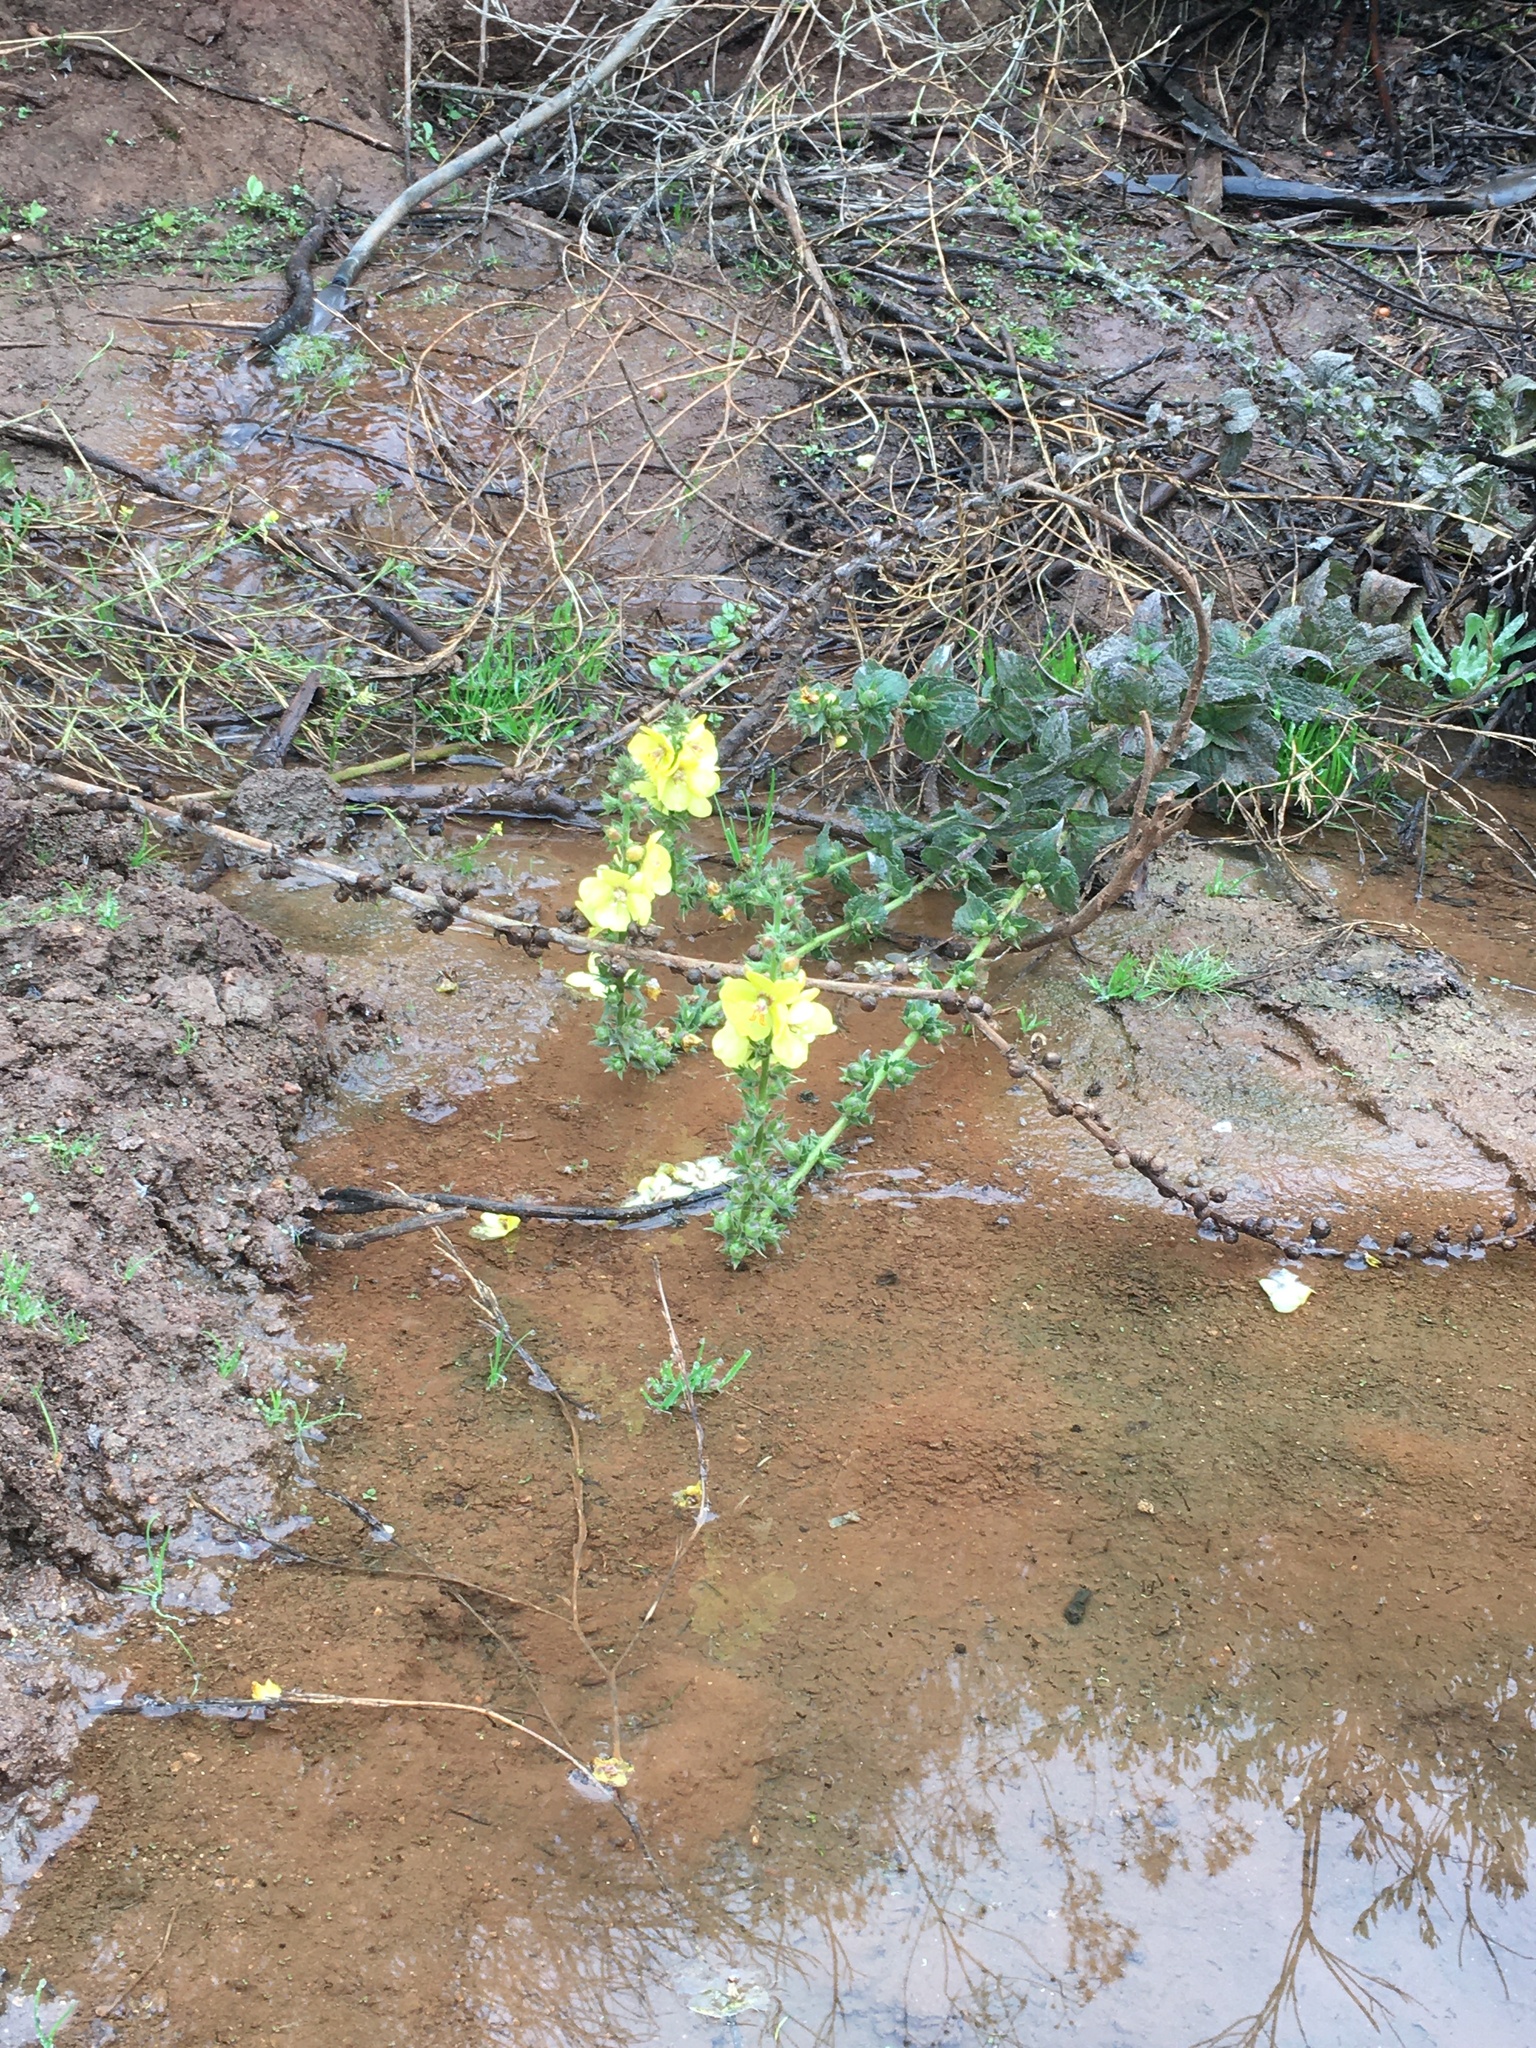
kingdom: Plantae
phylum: Tracheophyta
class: Magnoliopsida
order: Lamiales
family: Scrophulariaceae
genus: Verbascum
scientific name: Verbascum virgatum
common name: Twiggy mullein
